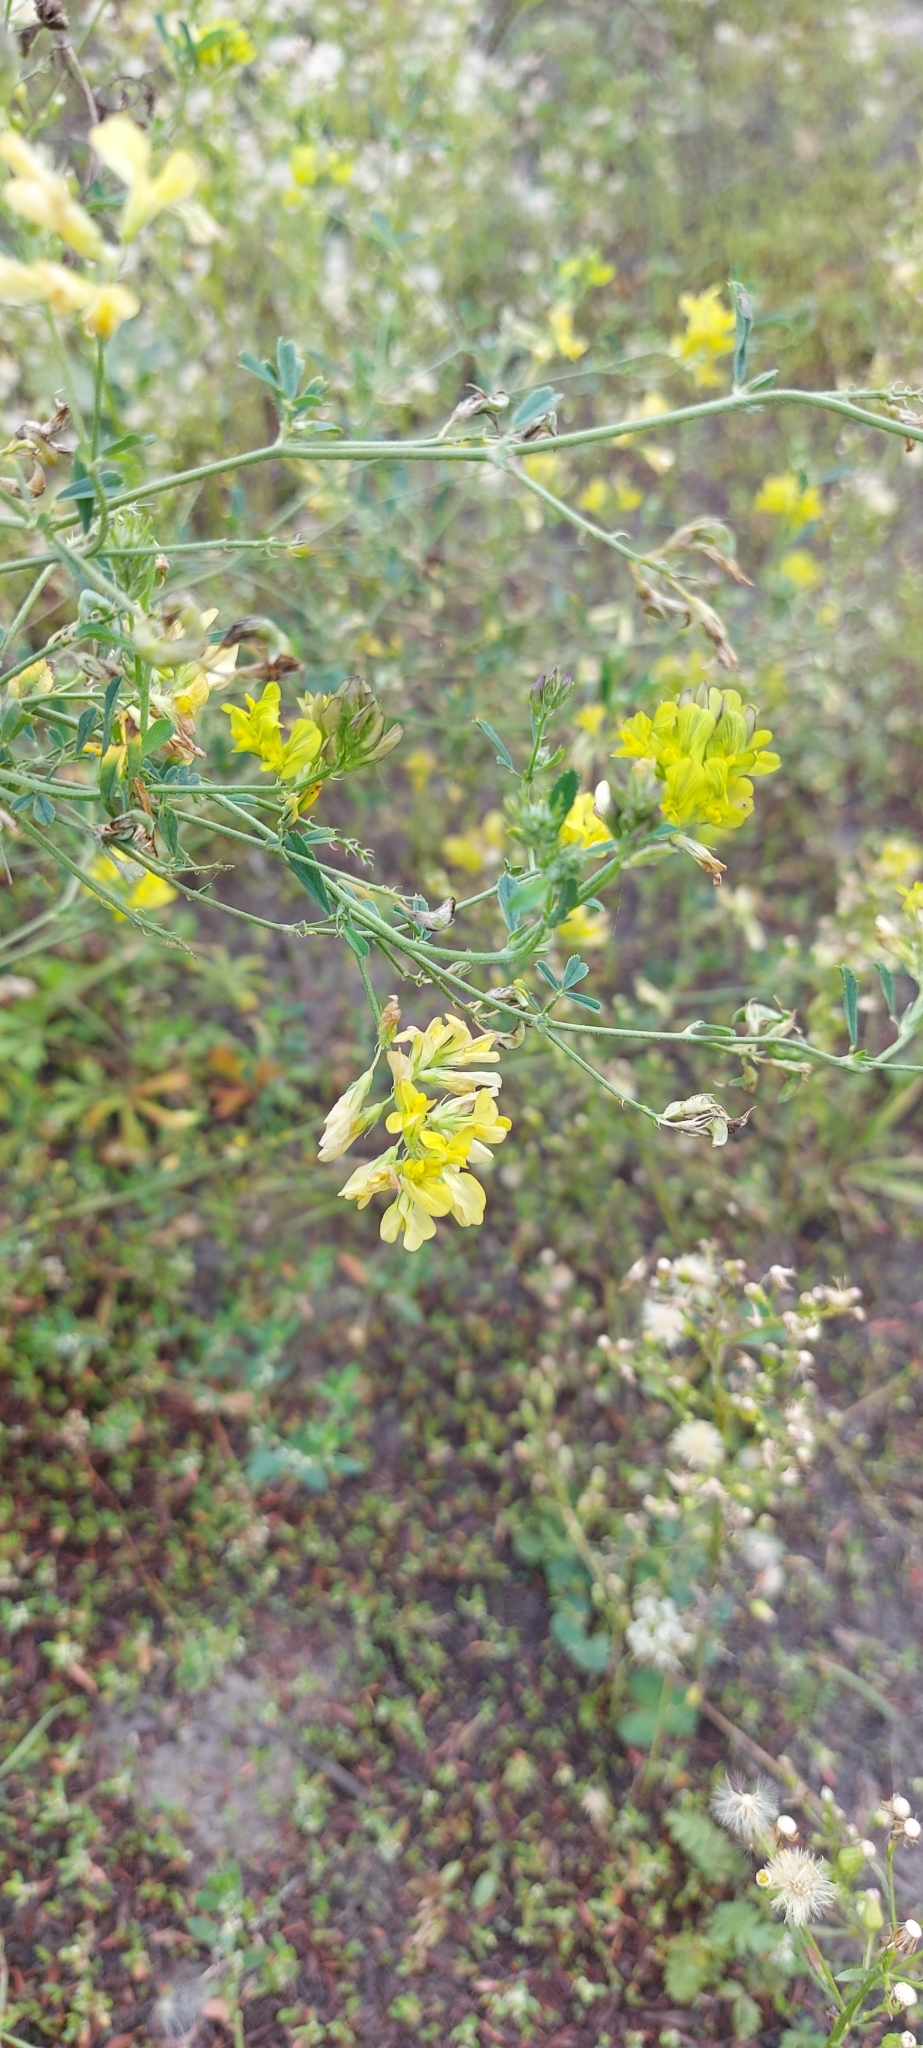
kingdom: Plantae
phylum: Tracheophyta
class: Magnoliopsida
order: Fabales
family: Fabaceae
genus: Medicago
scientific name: Medicago varia
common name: Sand lucerne
